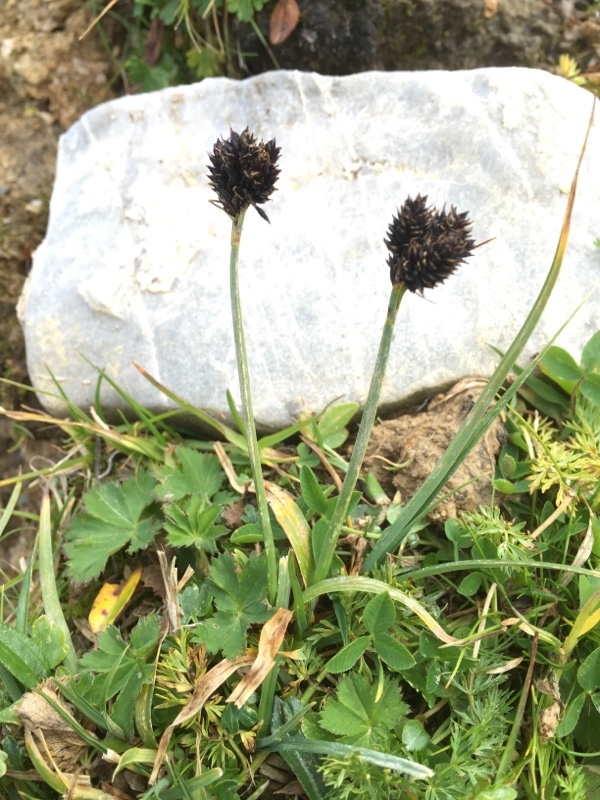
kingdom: Plantae
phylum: Tracheophyta
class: Liliopsida
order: Poales
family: Cyperaceae
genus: Carex
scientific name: Carex atrata
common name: Black alpine sedge
